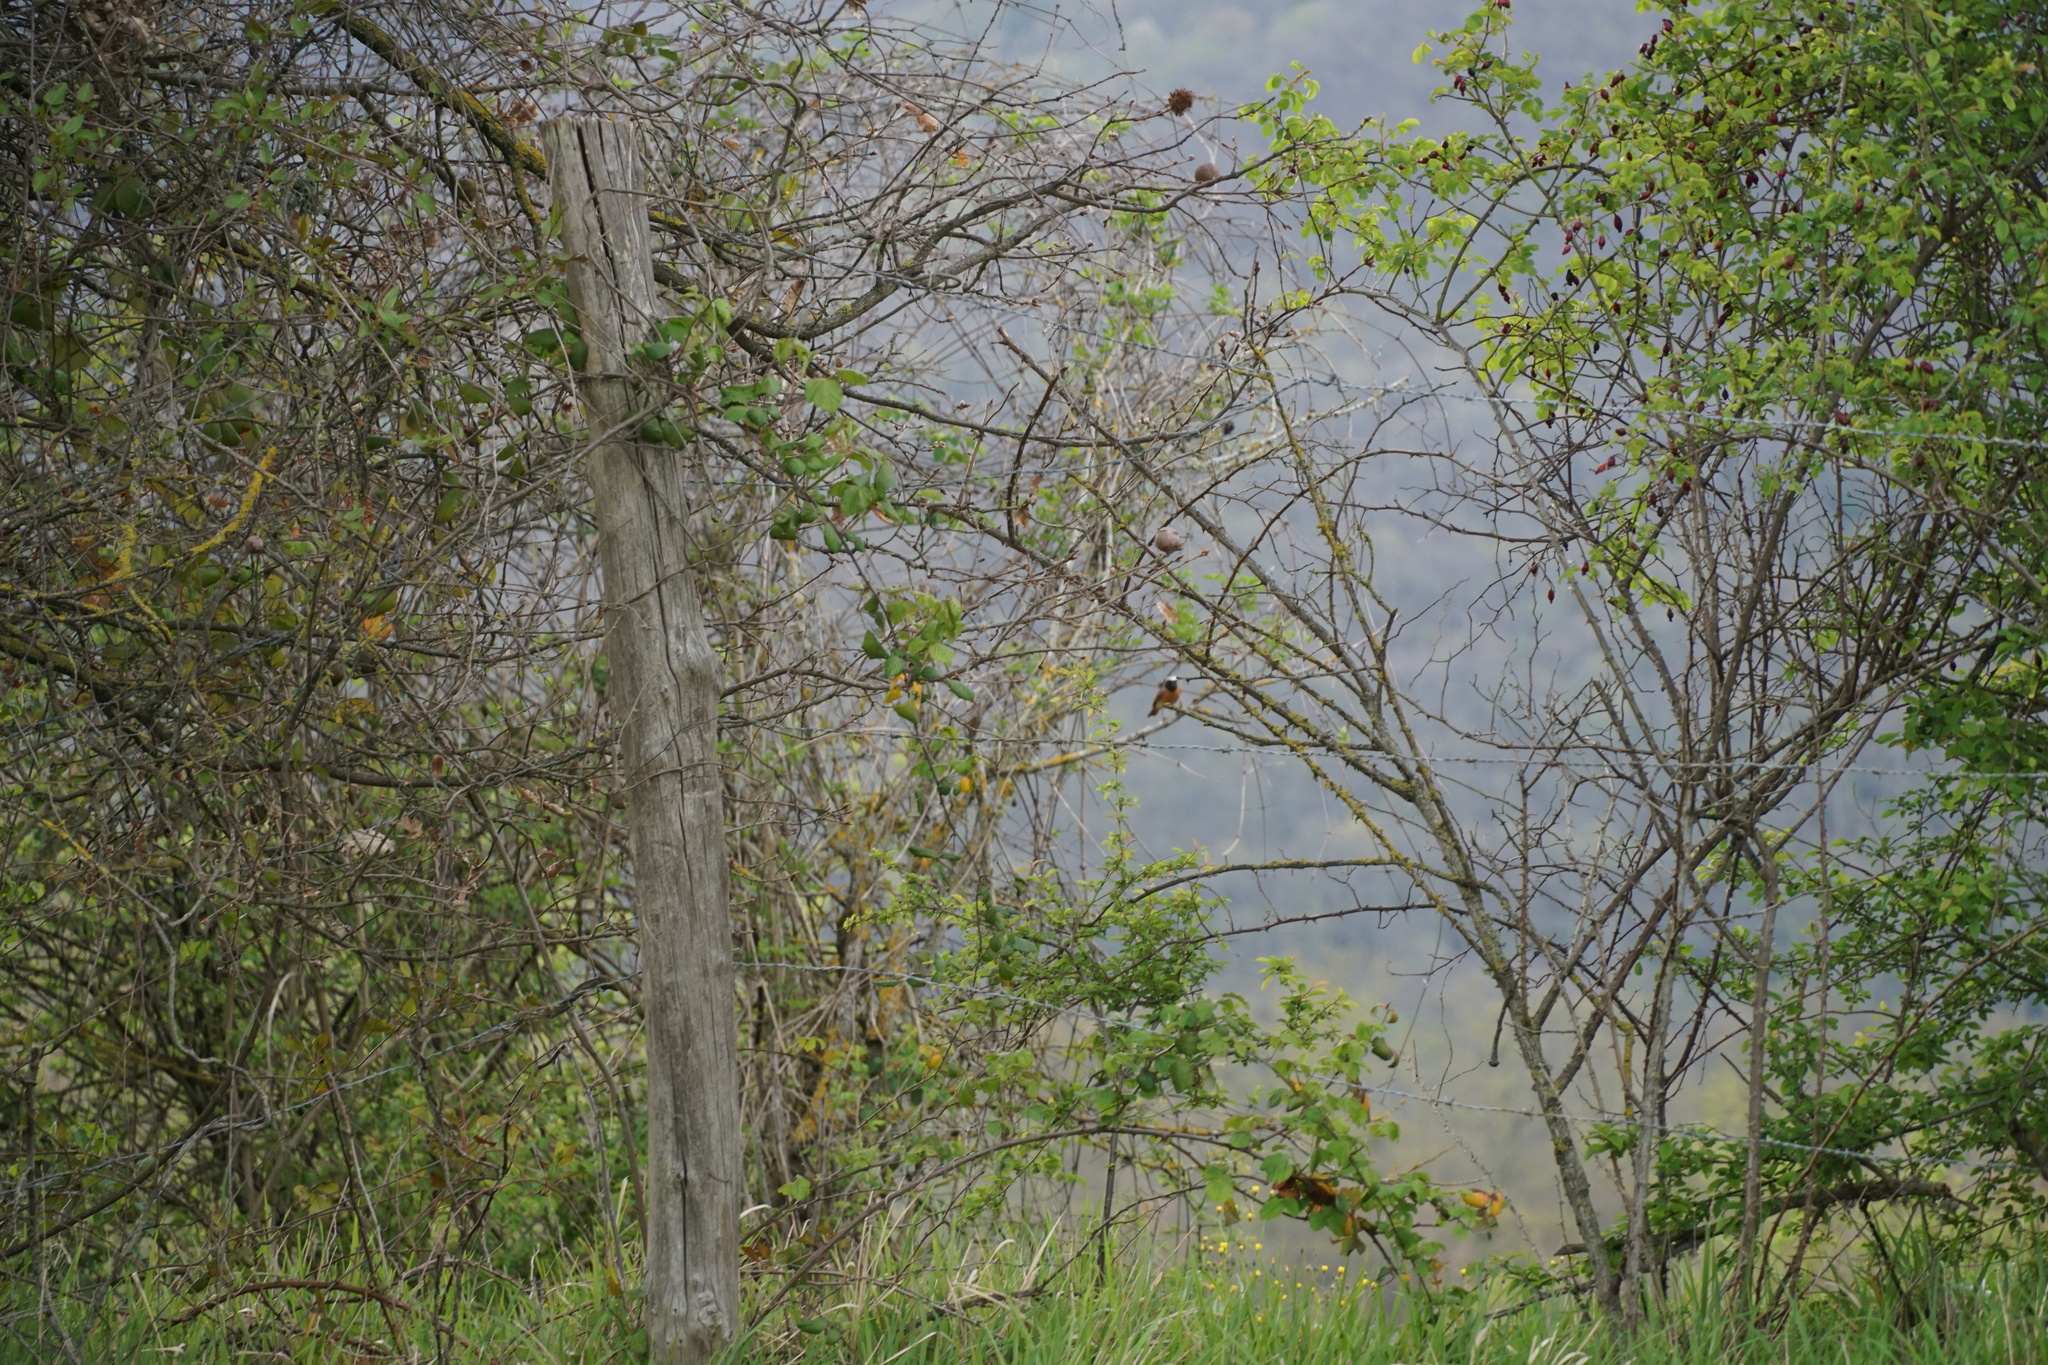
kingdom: Animalia
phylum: Chordata
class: Aves
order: Passeriformes
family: Muscicapidae
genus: Phoenicurus
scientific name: Phoenicurus phoenicurus
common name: Common redstart
